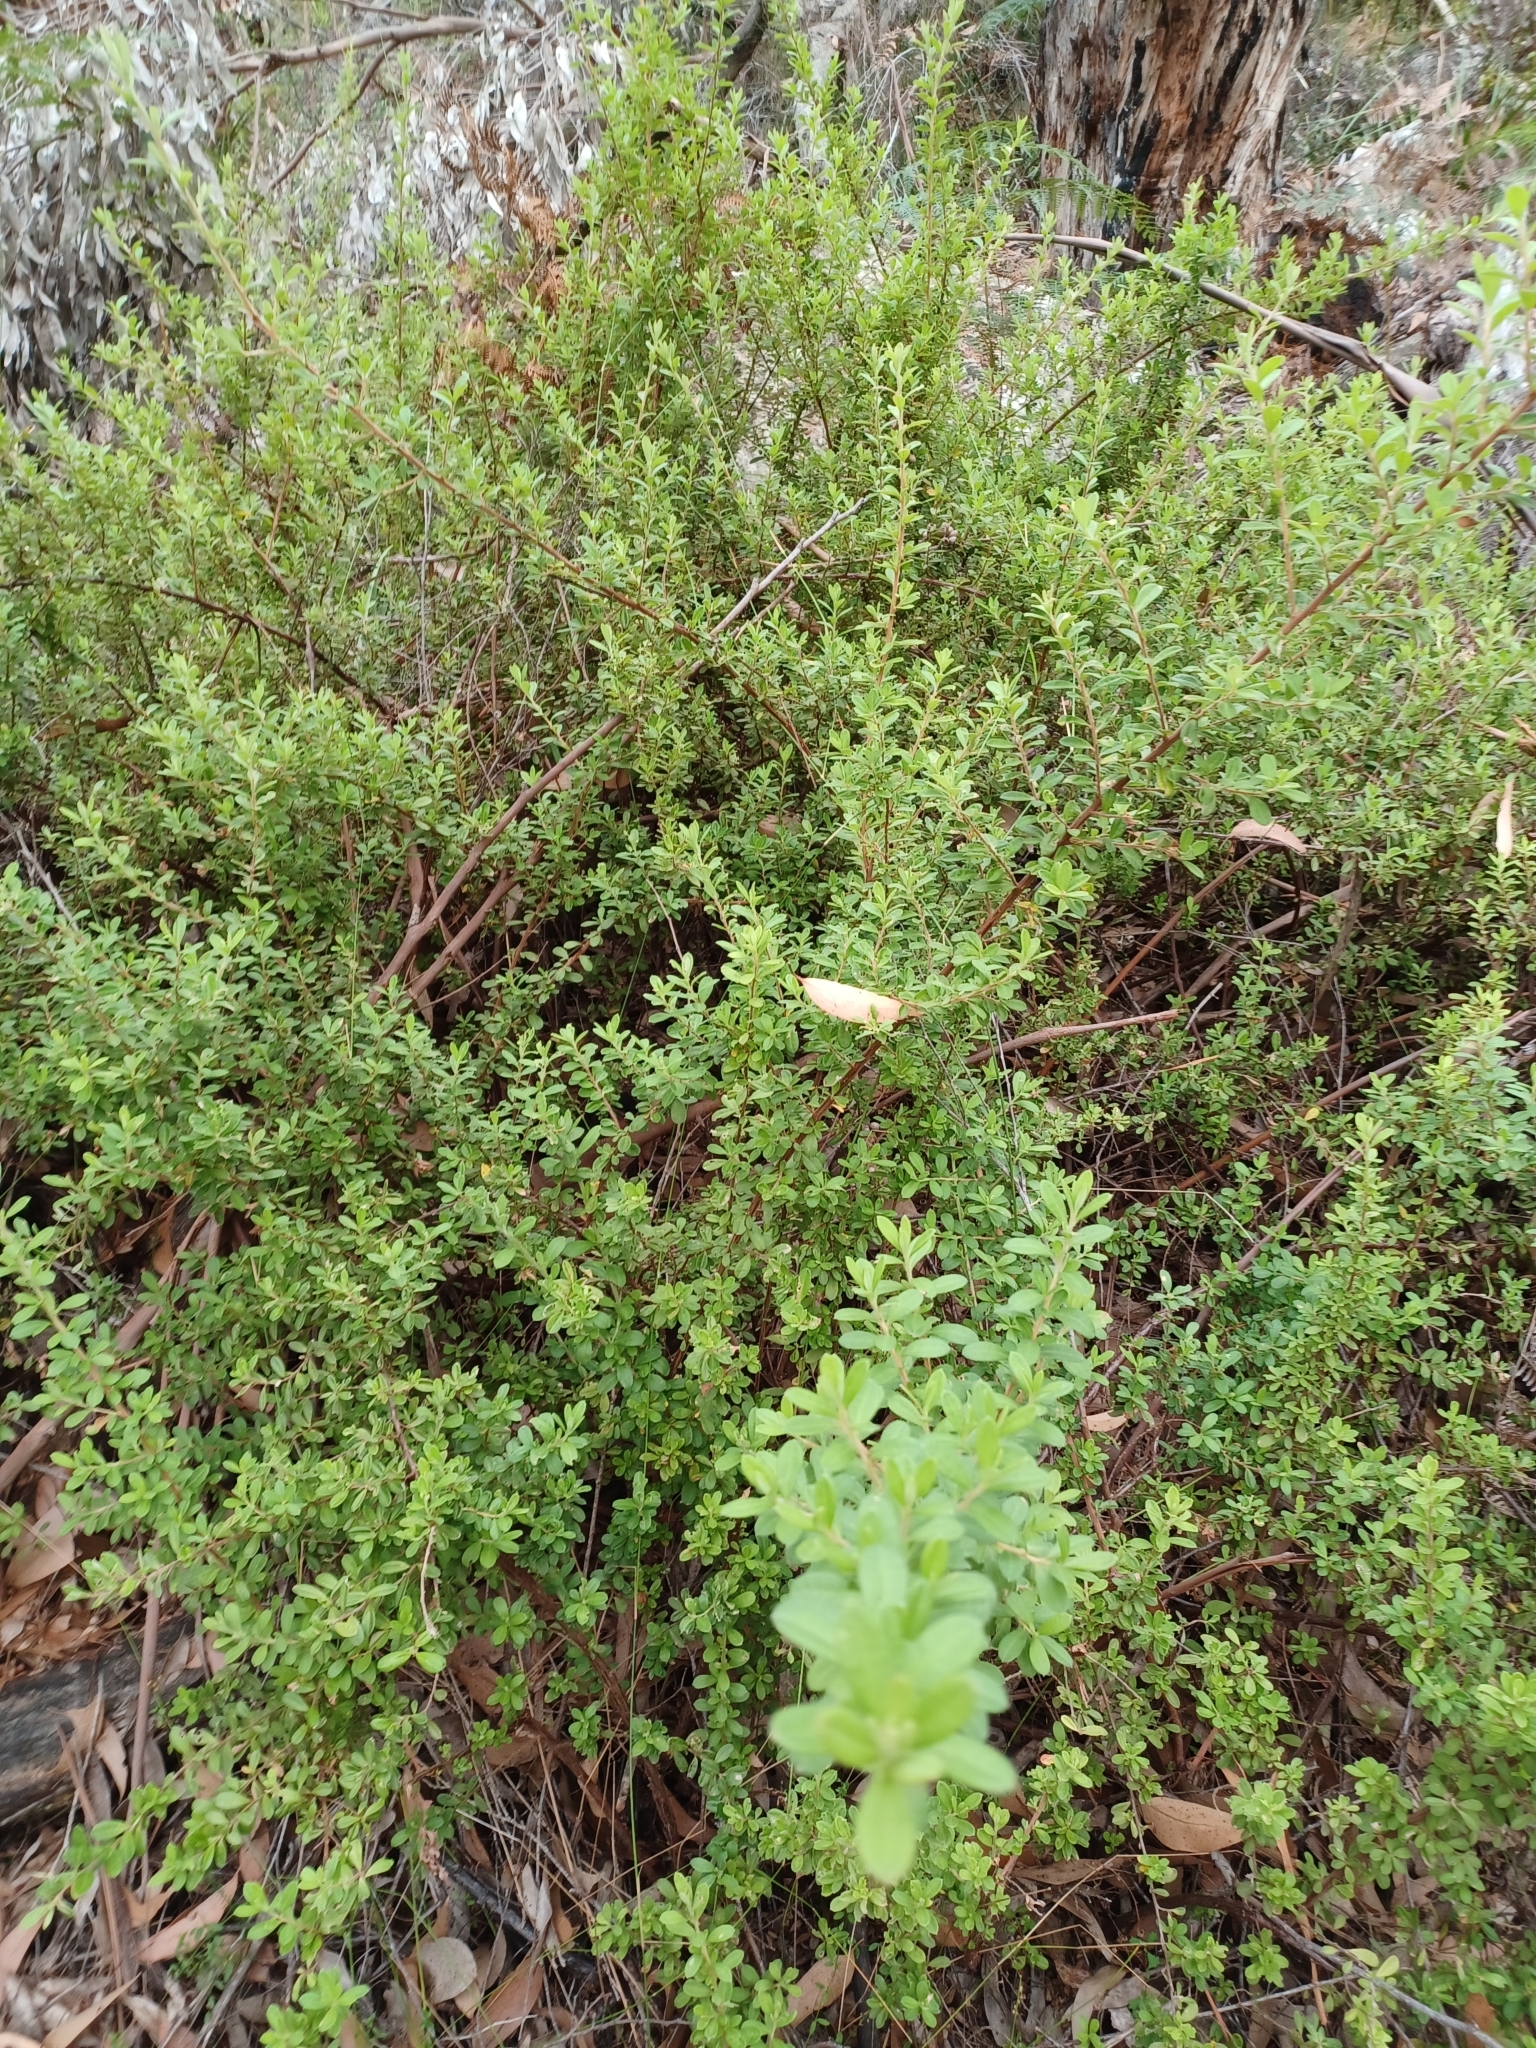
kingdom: Plantae
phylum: Tracheophyta
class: Magnoliopsida
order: Dilleniales
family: Dilleniaceae
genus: Hibbertia
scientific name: Hibbertia hirticalyx
